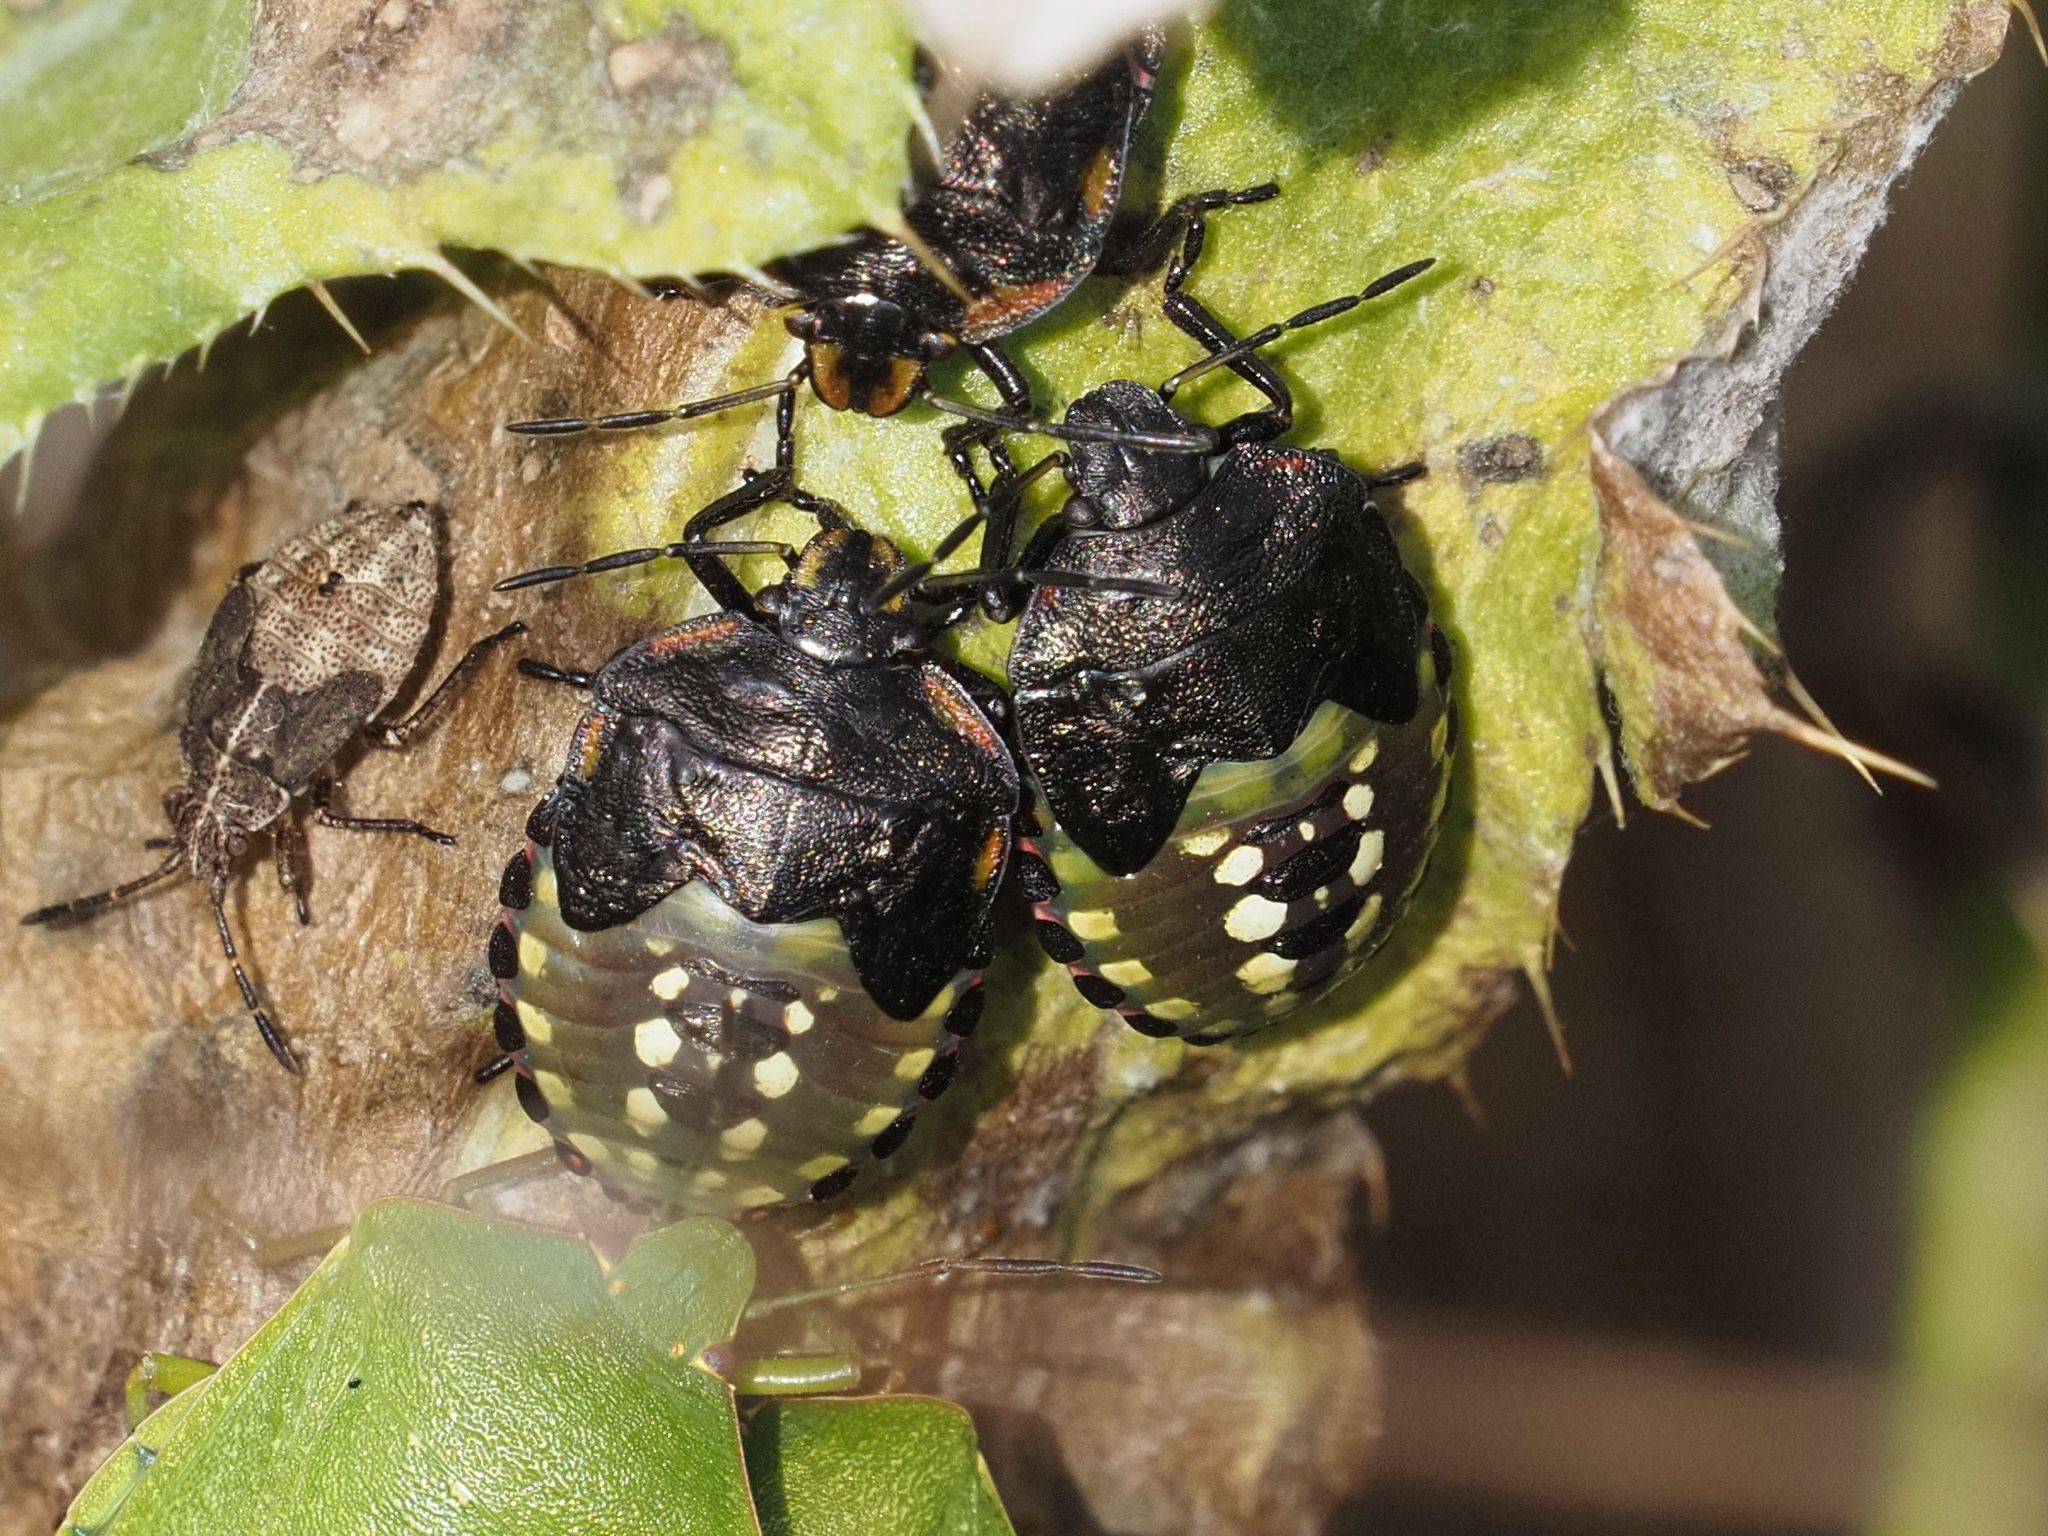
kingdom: Animalia
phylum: Arthropoda
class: Insecta
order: Hemiptera
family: Pentatomidae
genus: Nezara
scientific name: Nezara viridula
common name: Southern green stink bug
